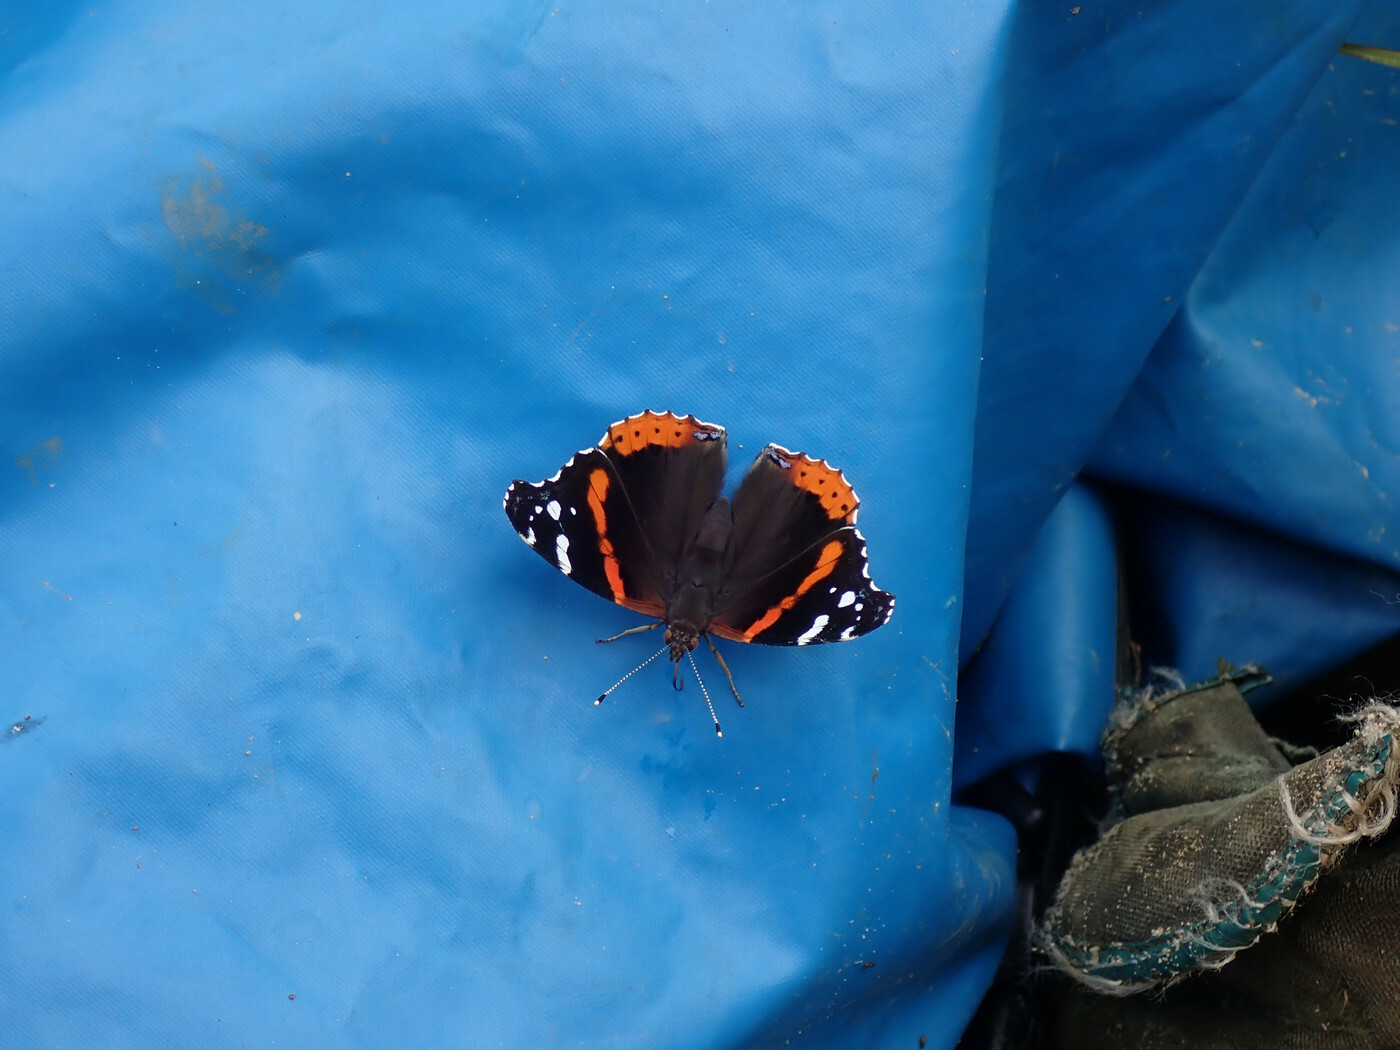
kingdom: Animalia
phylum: Arthropoda
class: Insecta
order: Lepidoptera
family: Nymphalidae
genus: Vanessa
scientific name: Vanessa atalanta
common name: Red admiral
